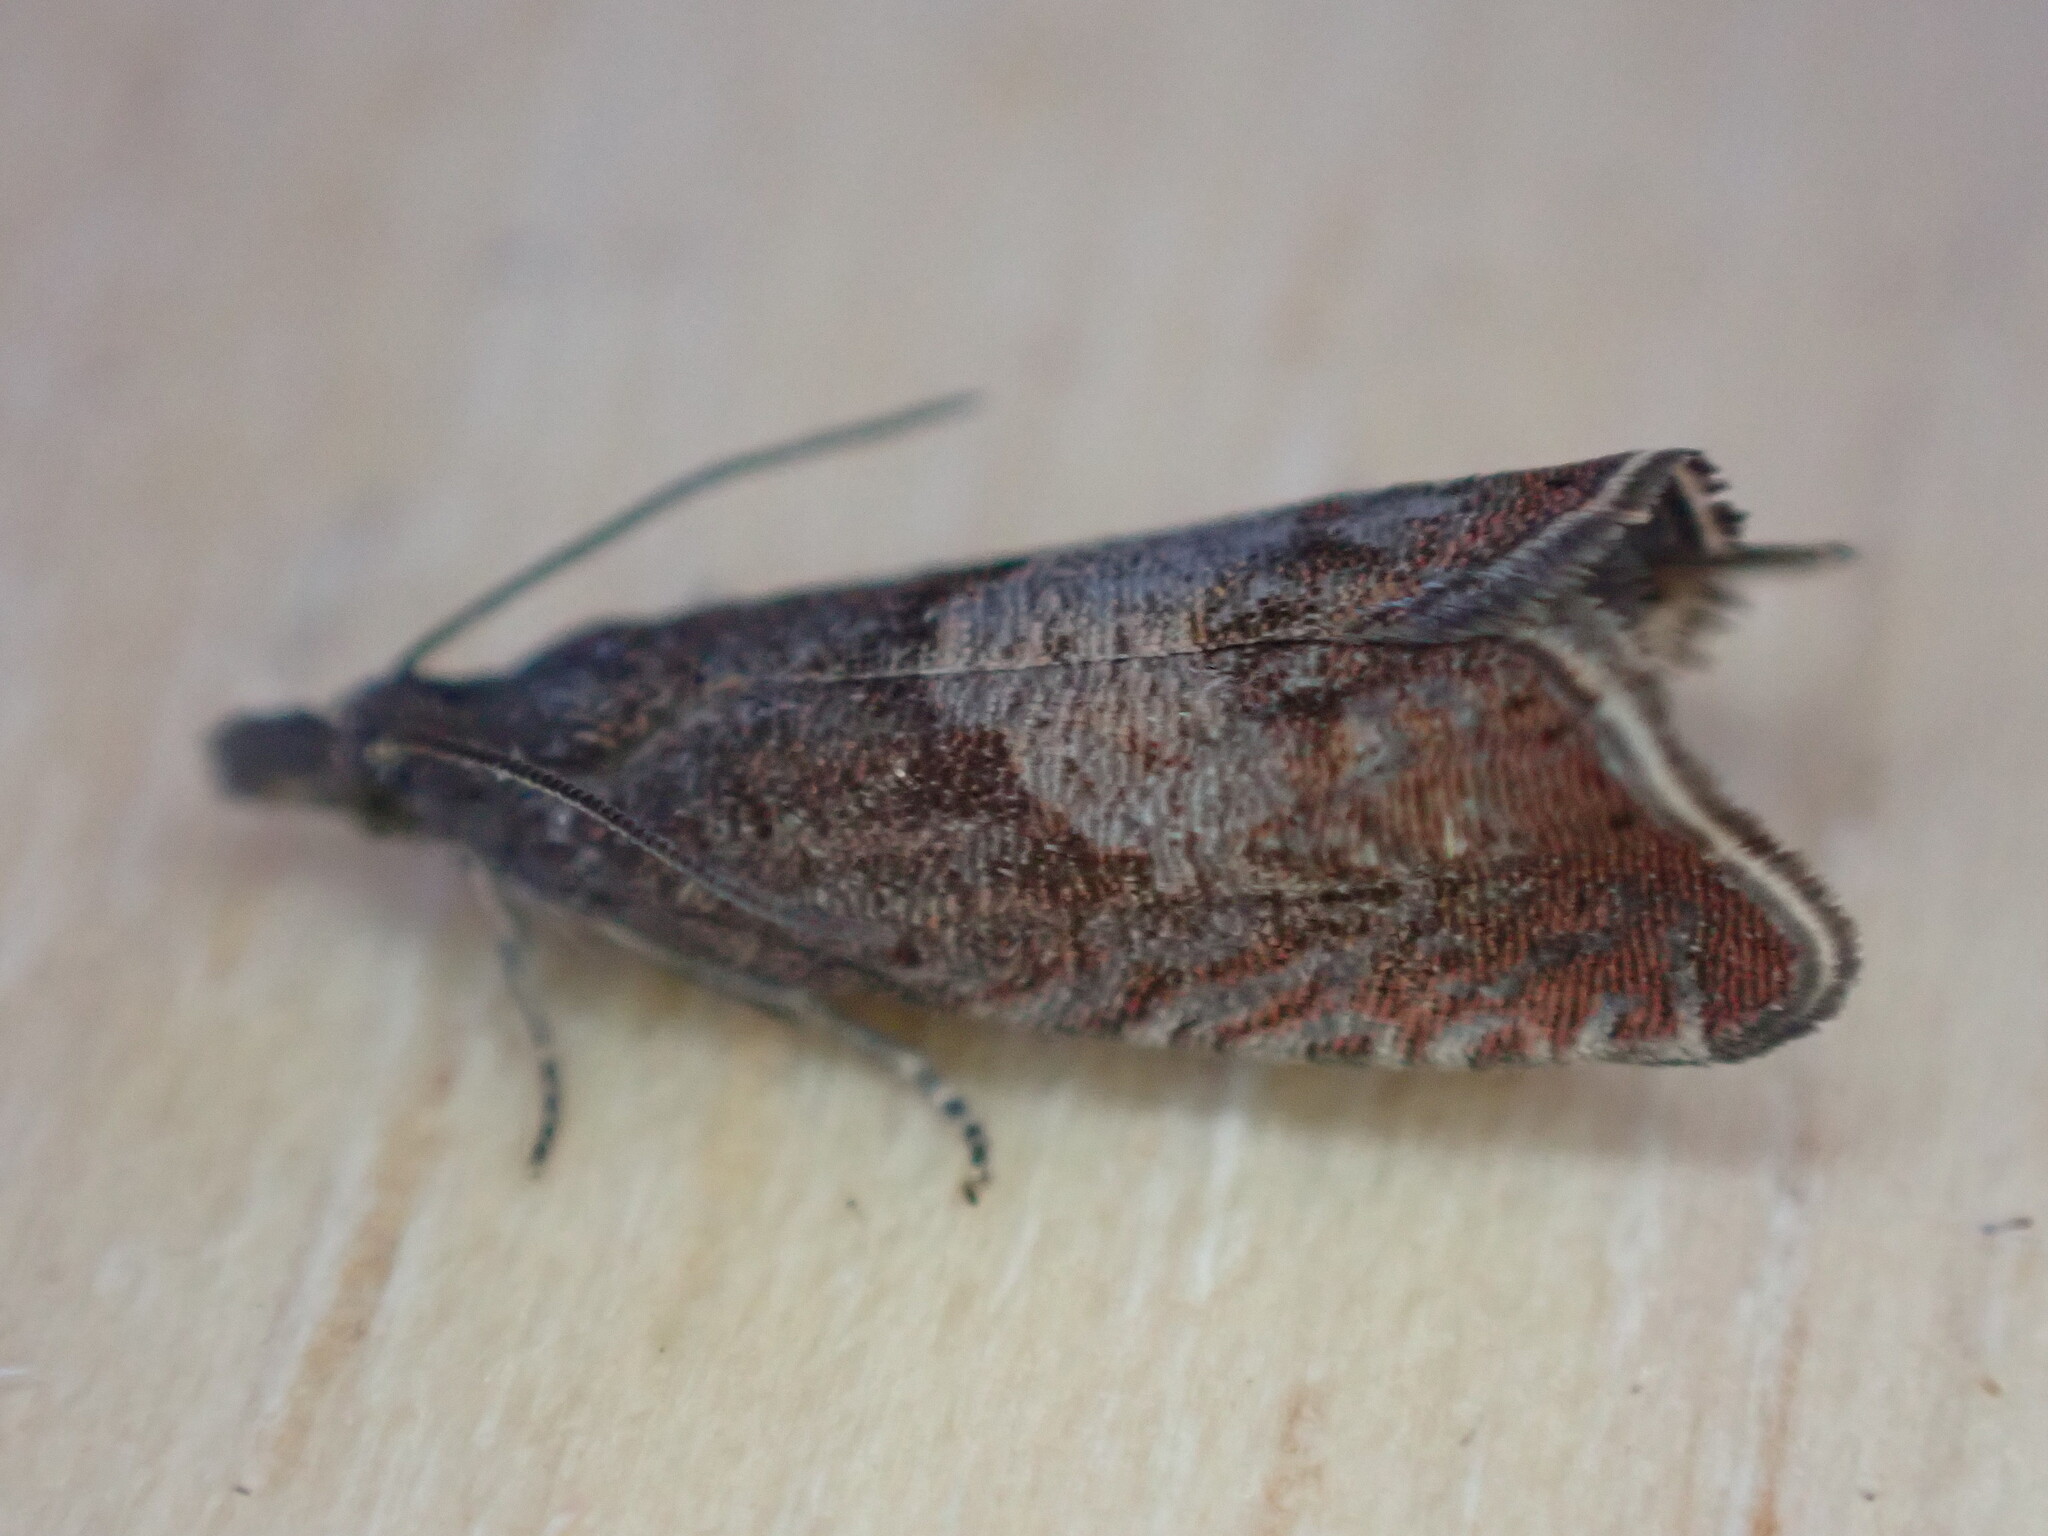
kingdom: Animalia
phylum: Arthropoda
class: Insecta
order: Lepidoptera
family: Tortricidae
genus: Dichrorampha
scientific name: Dichrorampha acuminatana
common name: Sharp-winged drill
